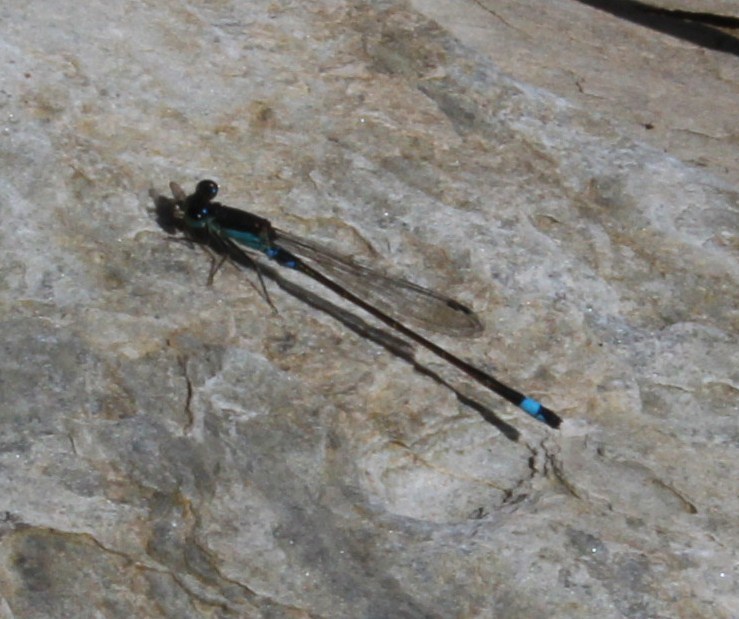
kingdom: Animalia
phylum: Arthropoda
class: Insecta
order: Odonata
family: Coenagrionidae
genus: Ischnura
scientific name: Ischnura senegalensis
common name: Tropical bluetail
